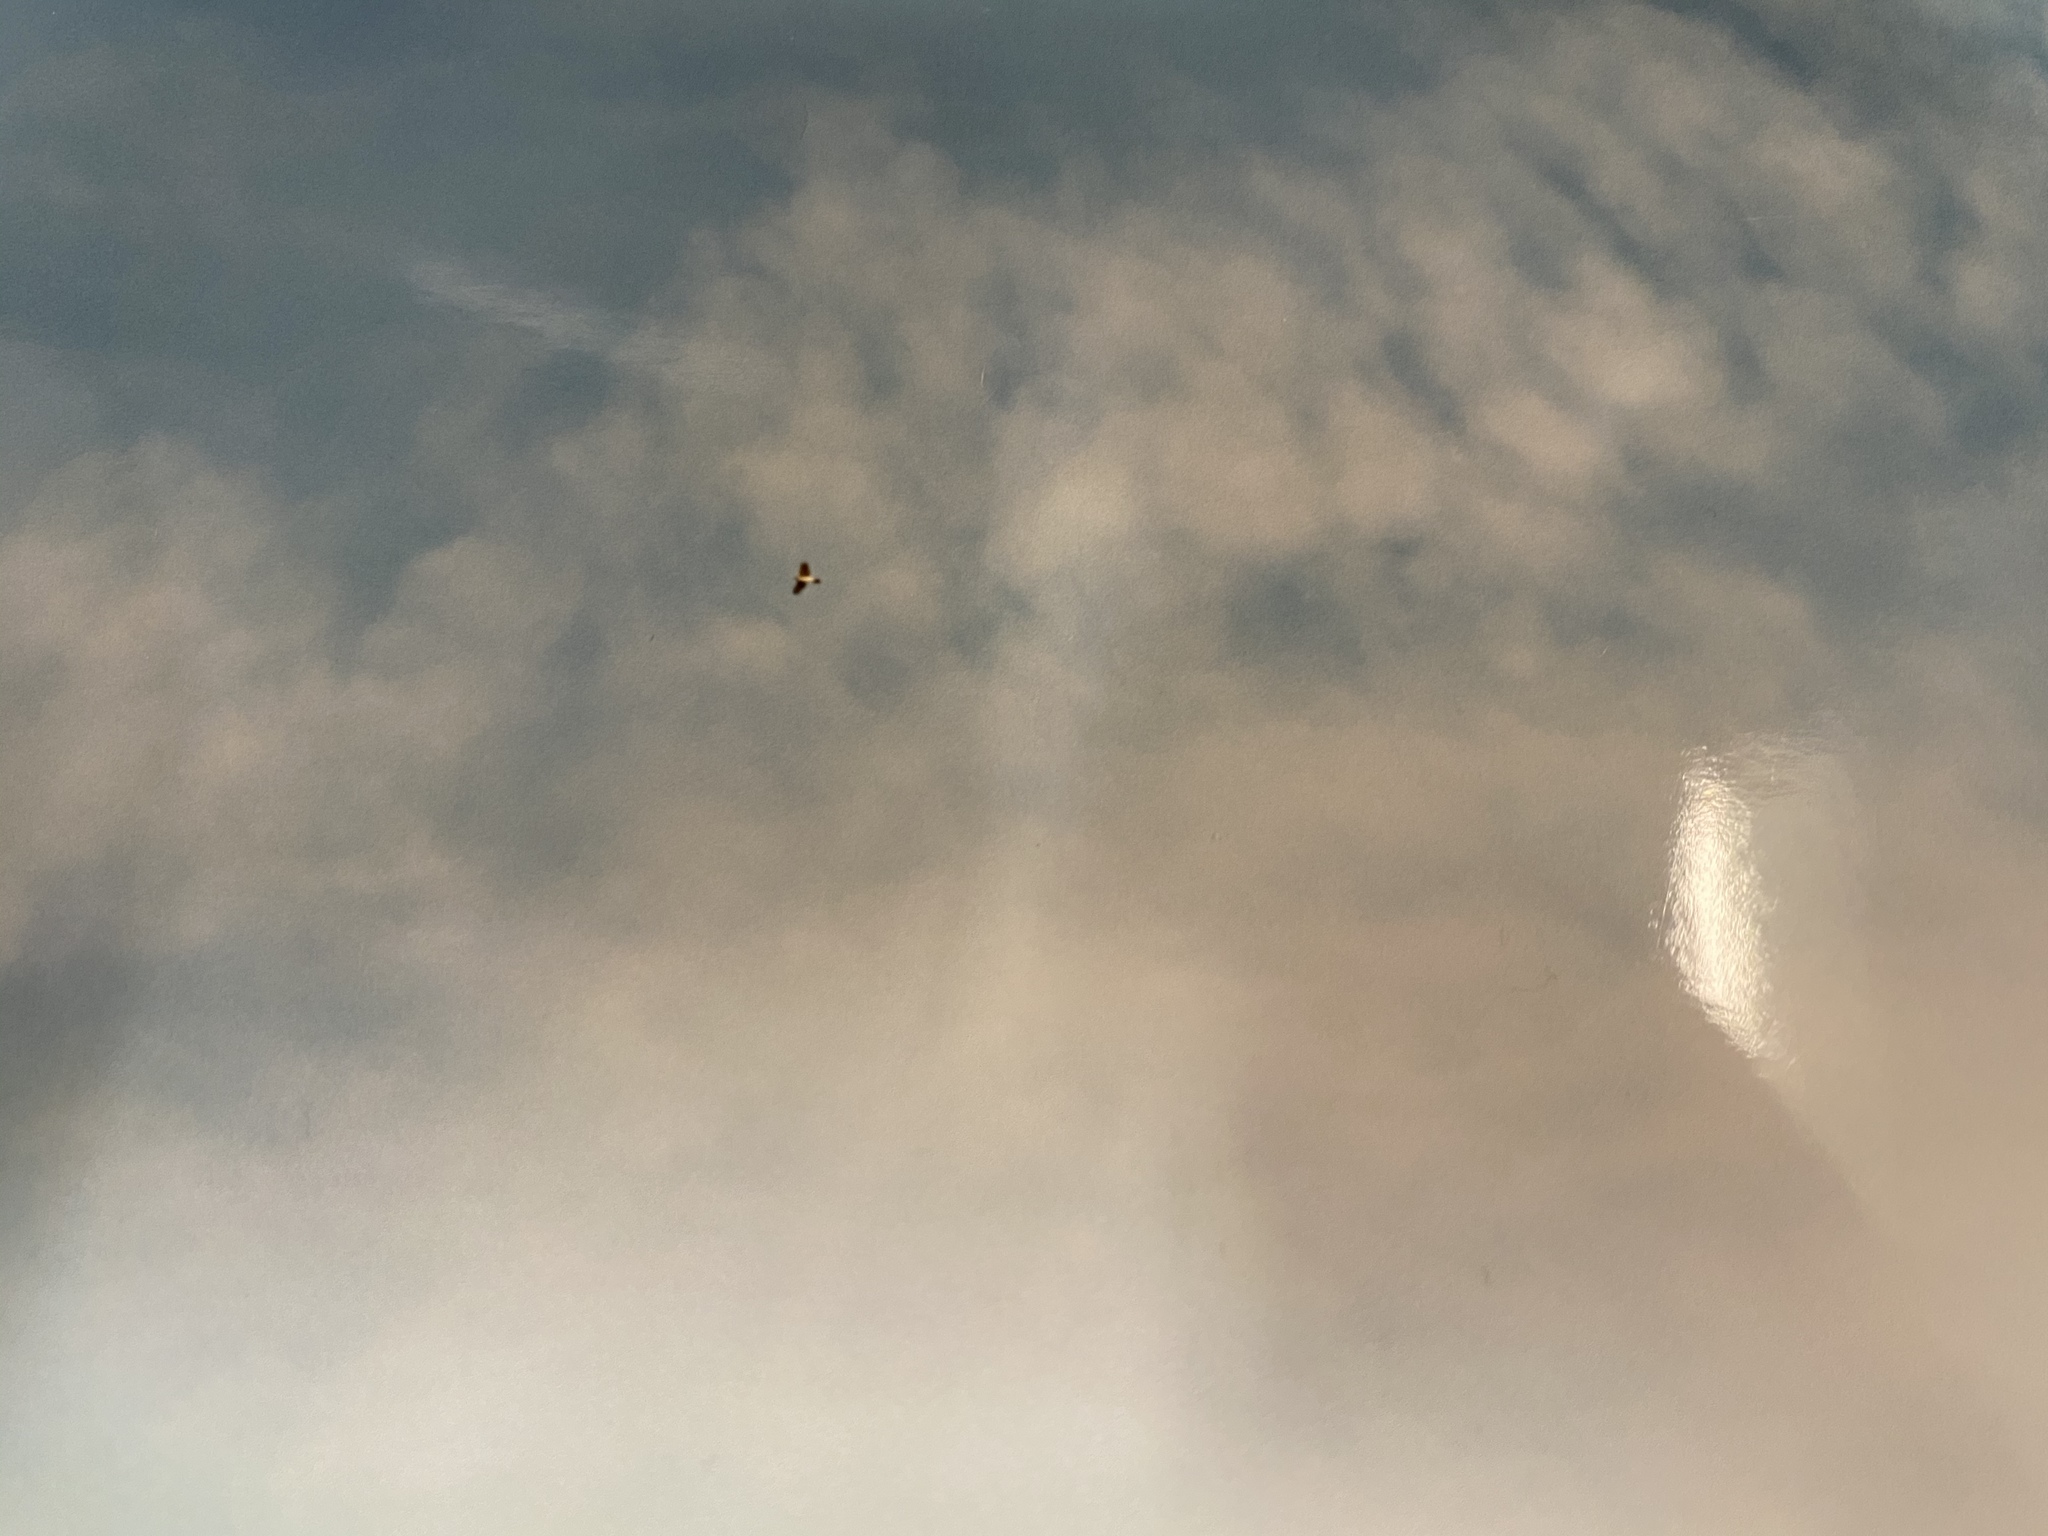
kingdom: Animalia
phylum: Chordata
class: Aves
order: Accipitriformes
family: Accipitridae
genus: Accipiter
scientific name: Accipiter
